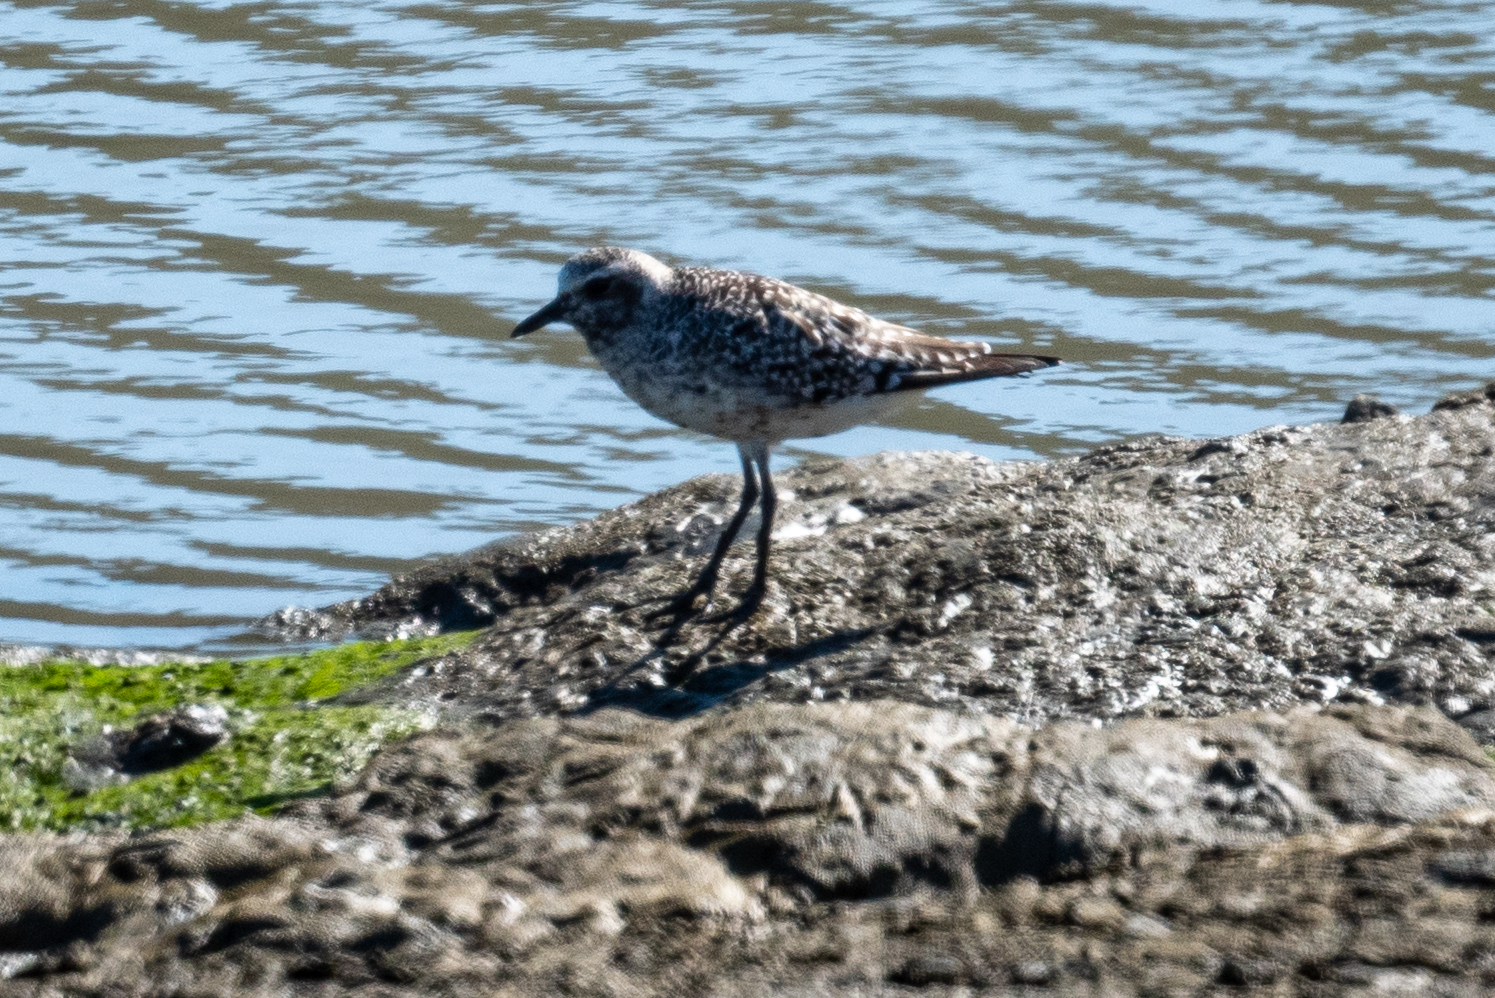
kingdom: Animalia
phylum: Chordata
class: Aves
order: Charadriiformes
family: Charadriidae
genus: Pluvialis
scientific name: Pluvialis squatarola
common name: Grey plover
